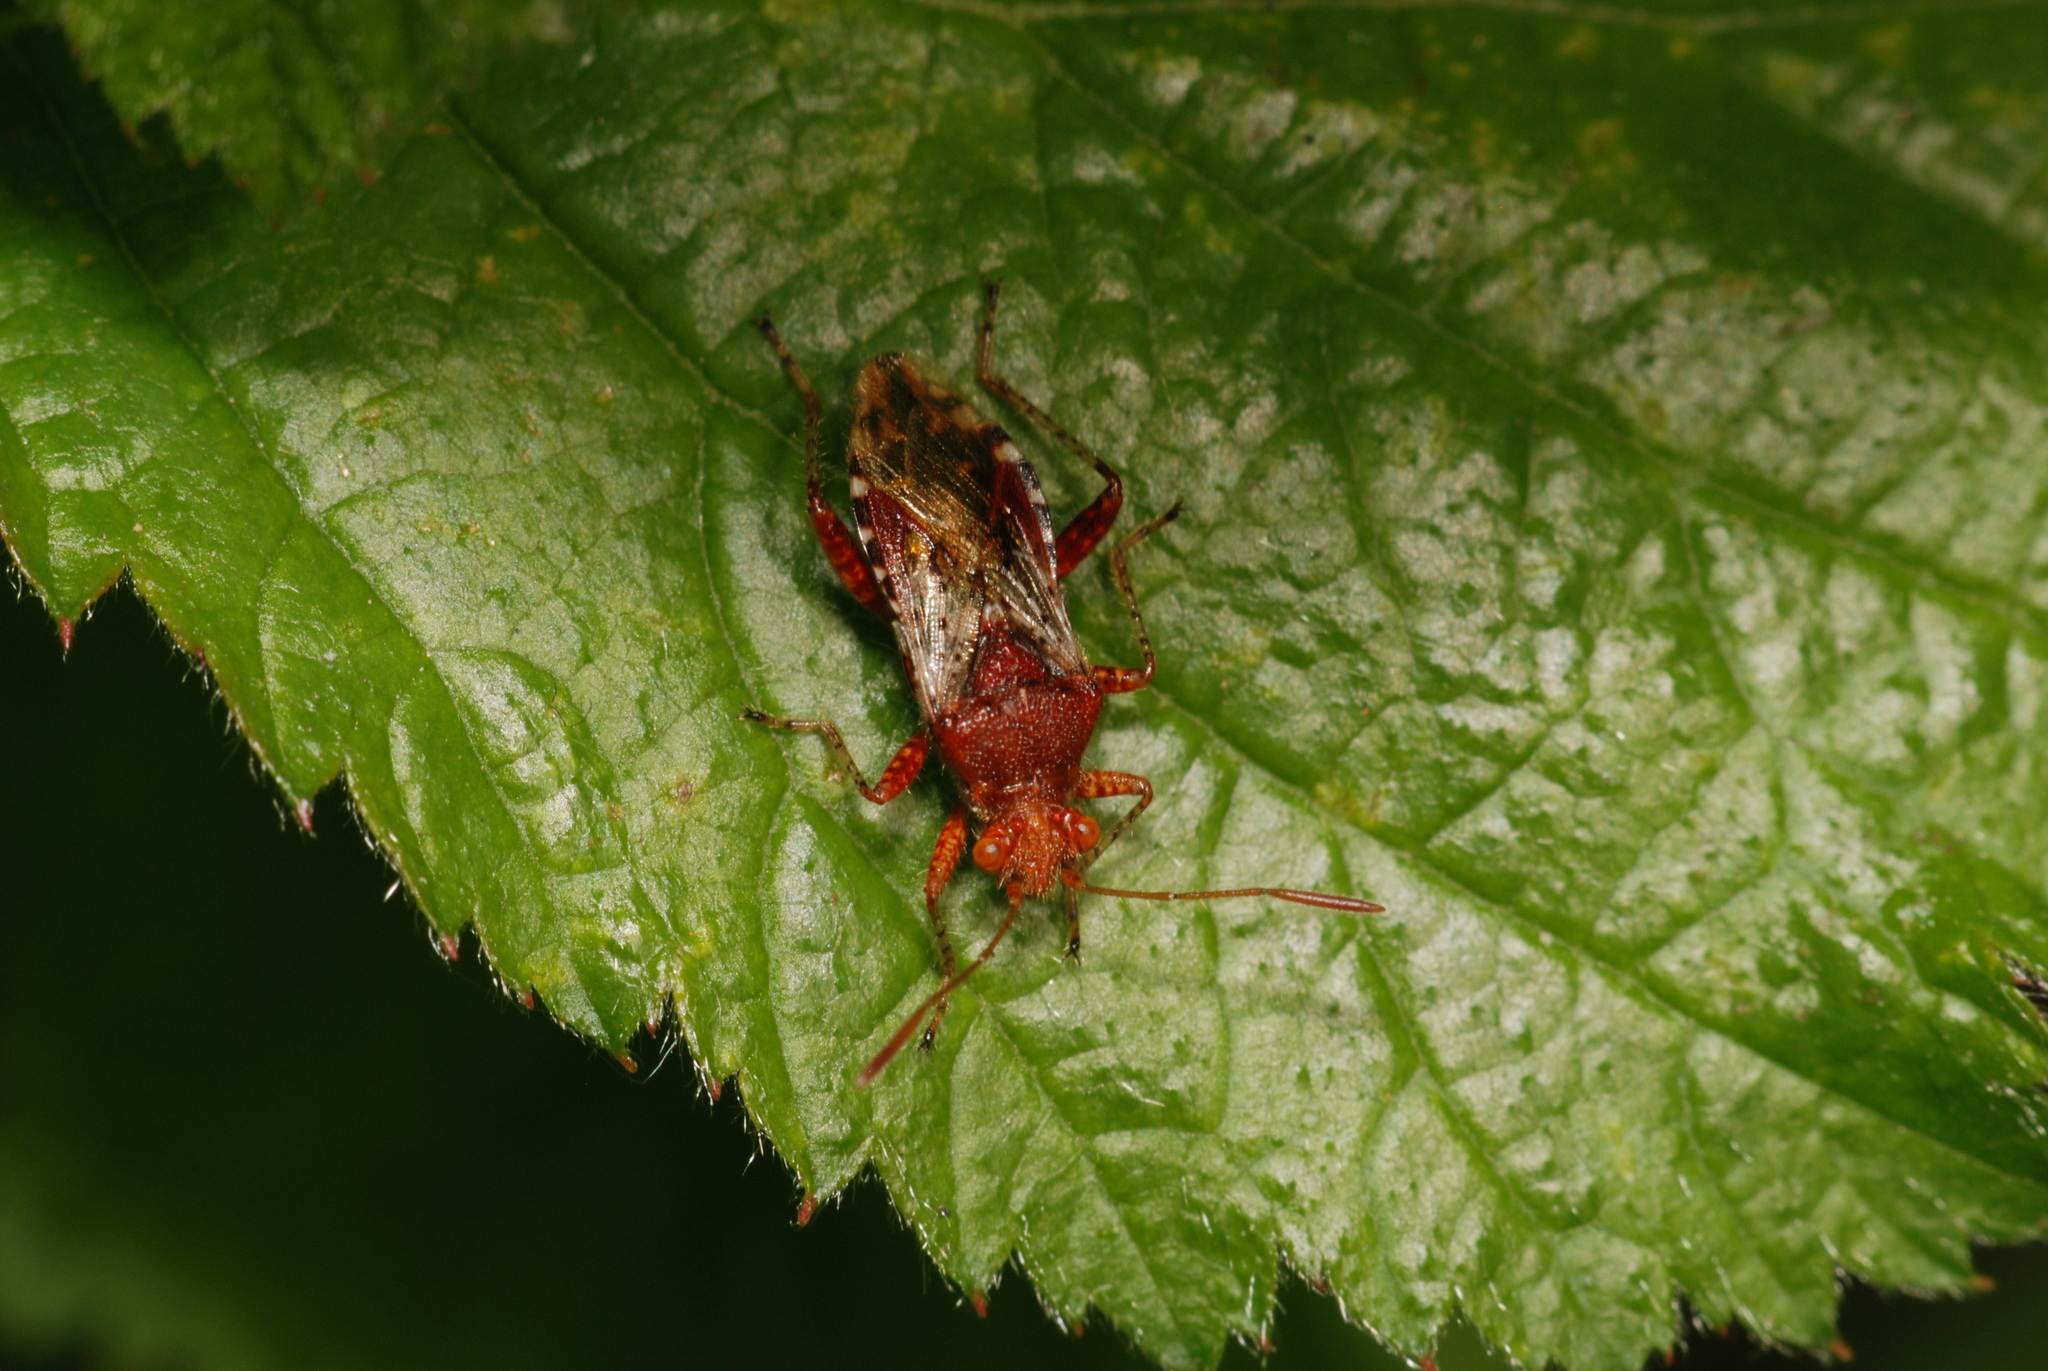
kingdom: Animalia
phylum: Arthropoda
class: Insecta
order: Hemiptera
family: Rhopalidae
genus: Rhopalus
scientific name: Rhopalus subrufus
